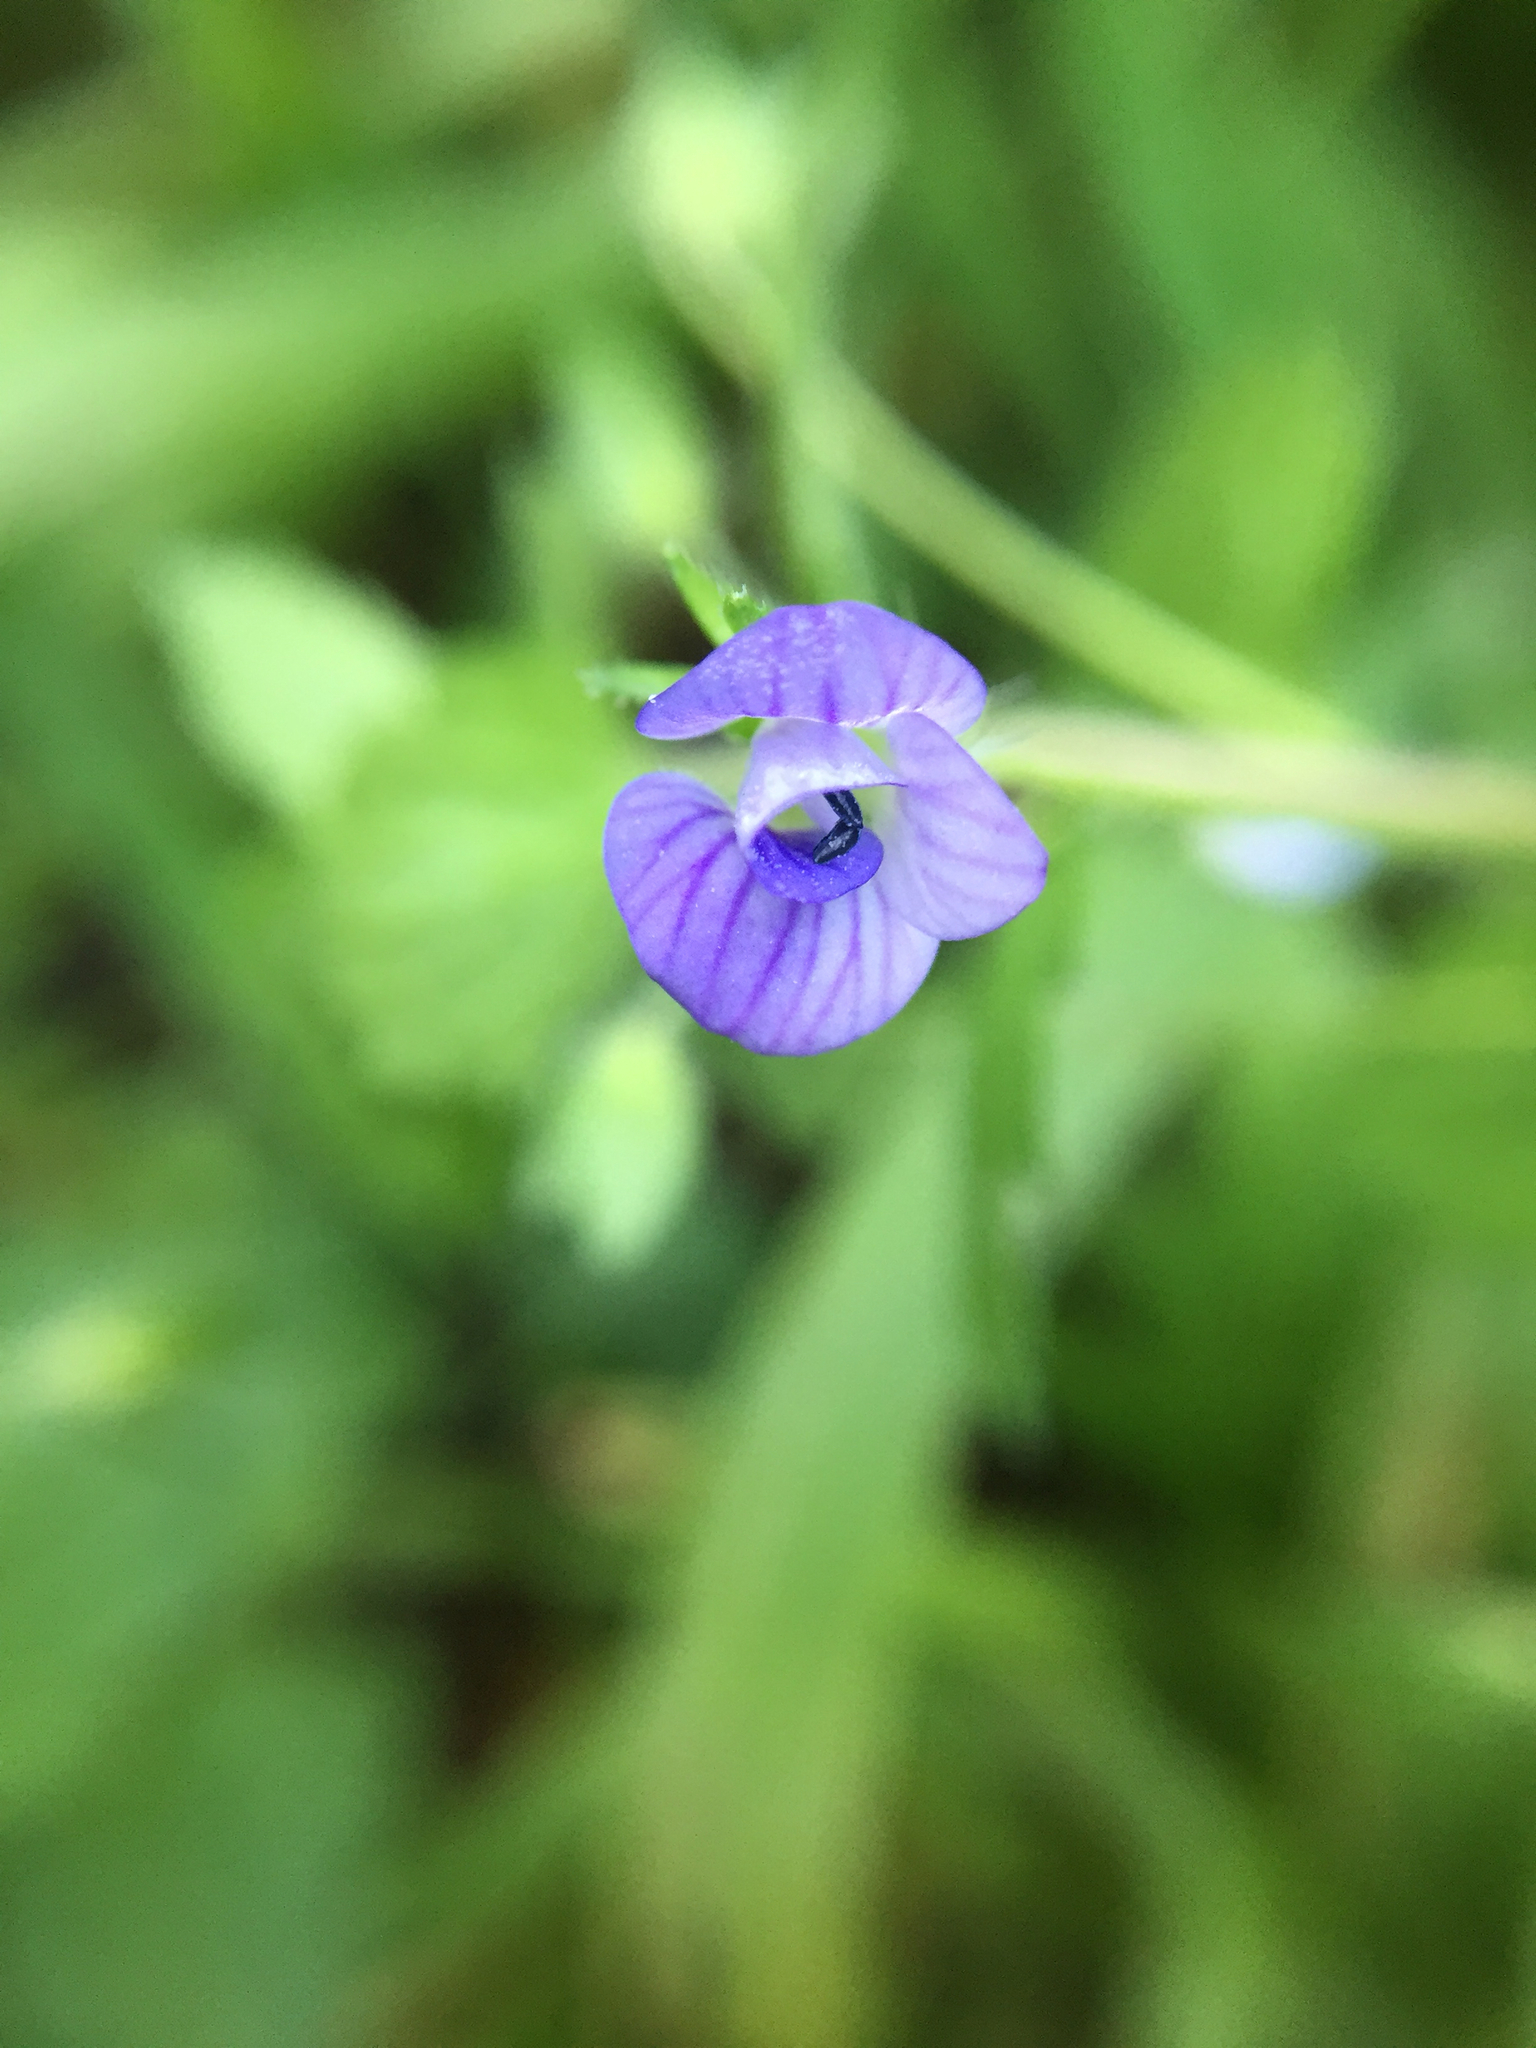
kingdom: Plantae
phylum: Tracheophyta
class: Magnoliopsida
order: Lamiales
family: Plantaginaceae
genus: Veronica
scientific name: Veronica persica
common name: Common field-speedwell
